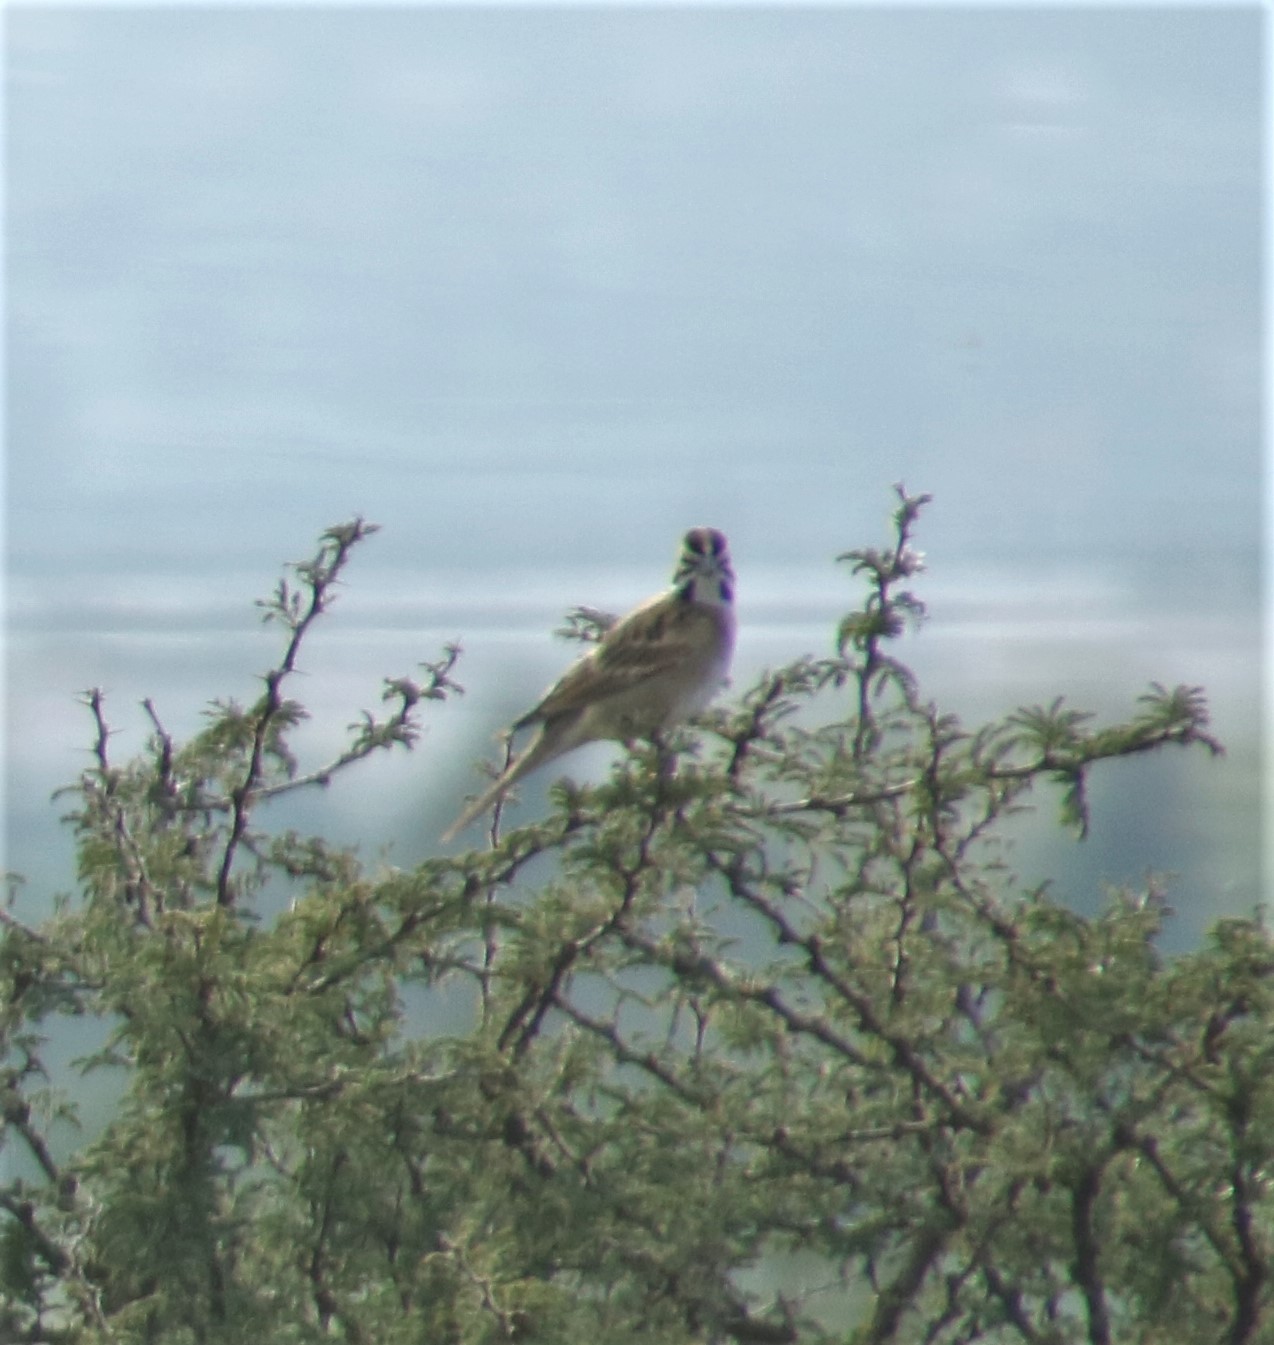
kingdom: Animalia
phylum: Chordata
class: Aves
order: Passeriformes
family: Passerellidae
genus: Chondestes
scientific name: Chondestes grammacus
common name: Lark sparrow
